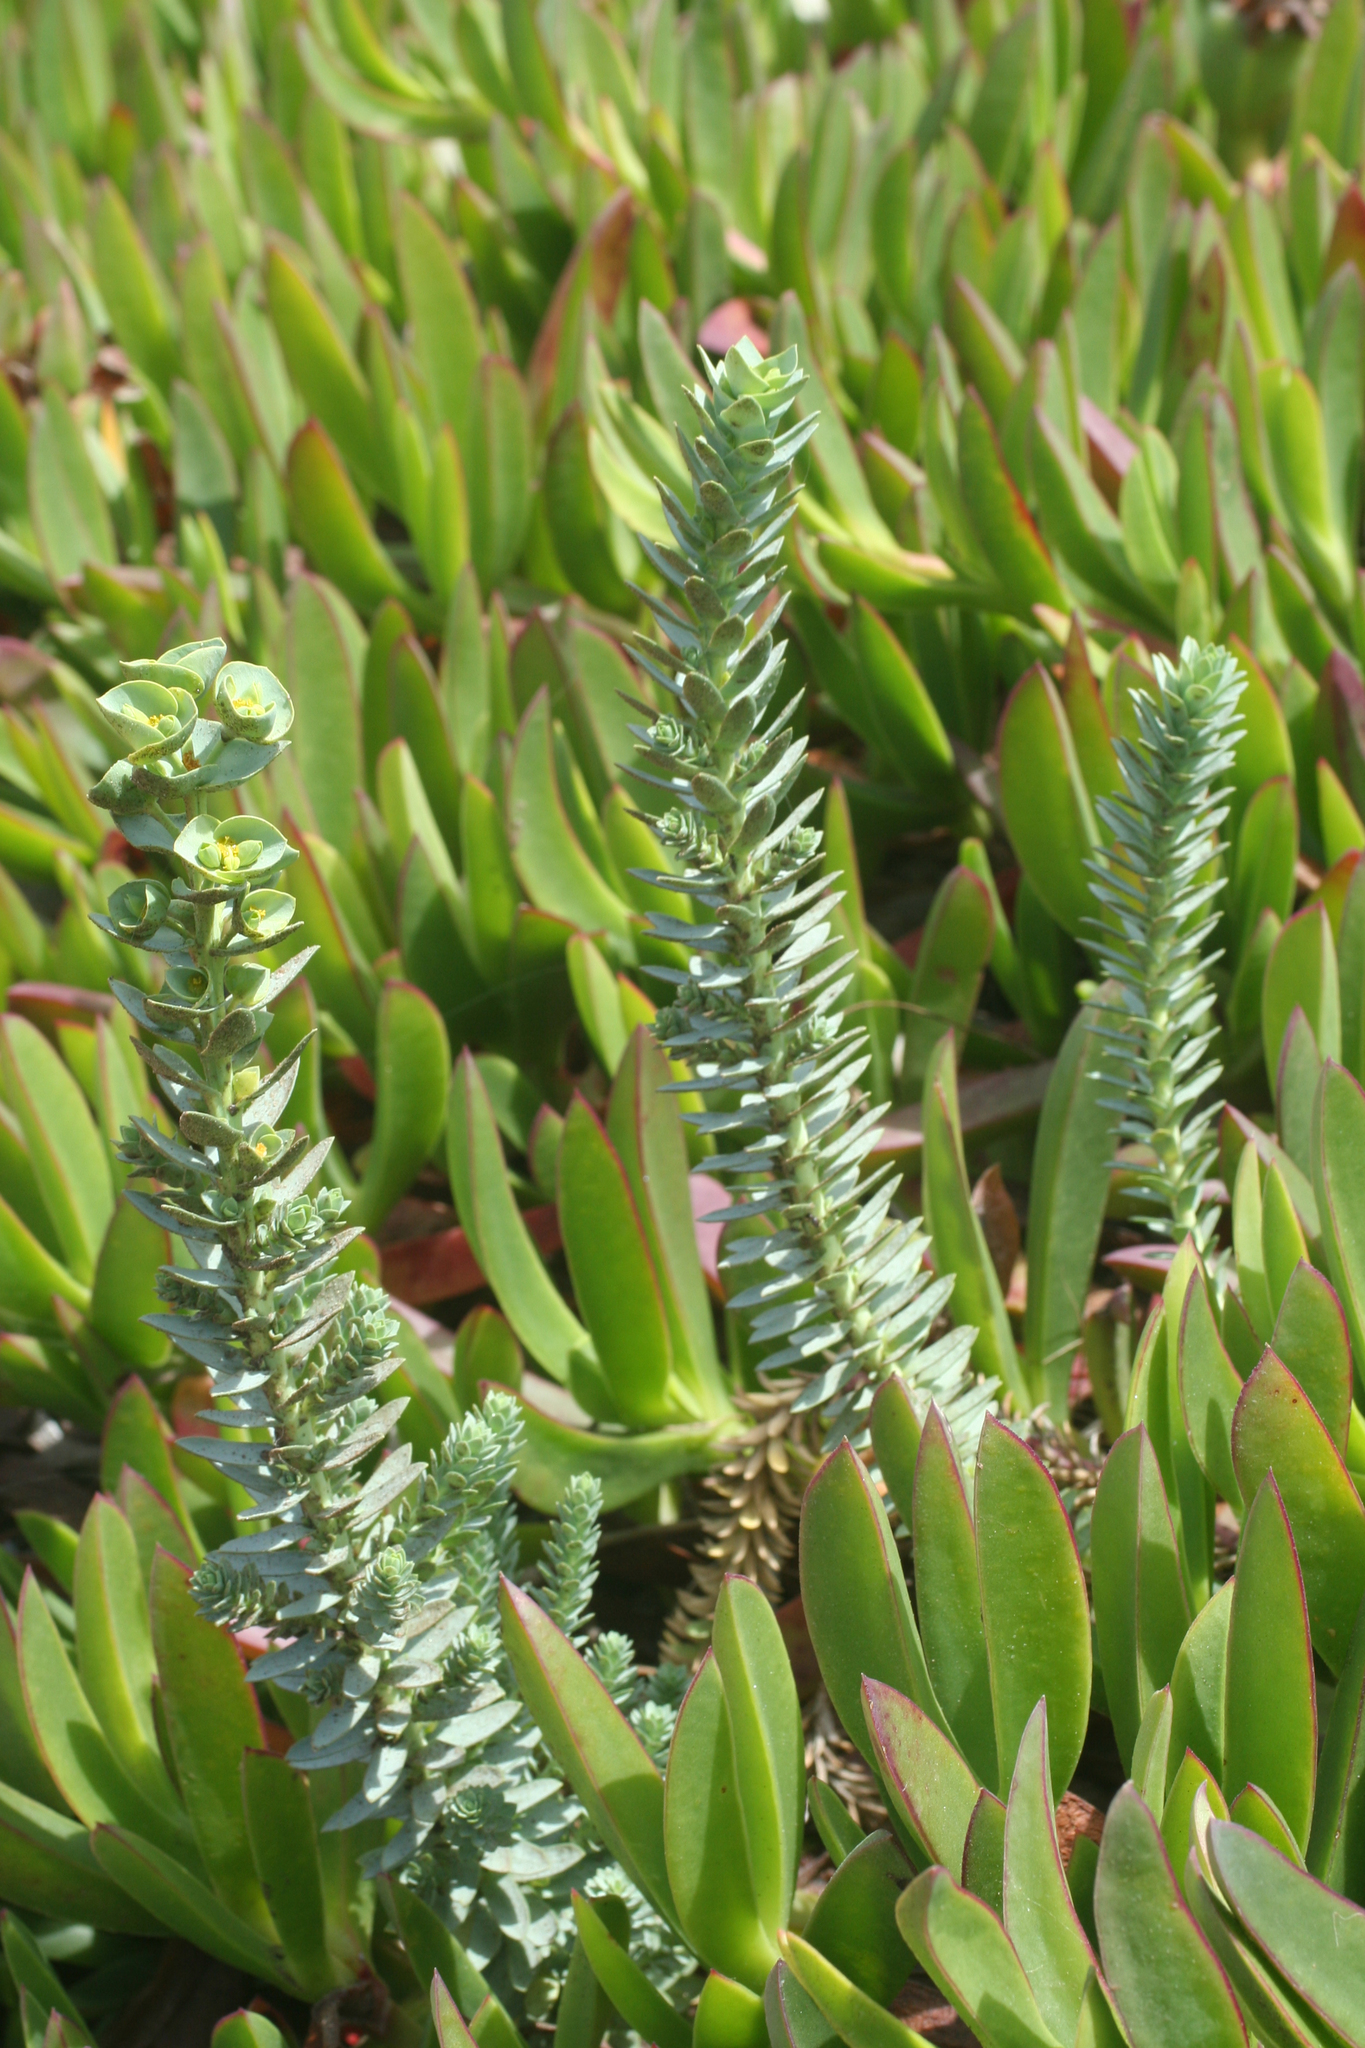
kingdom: Plantae
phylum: Tracheophyta
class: Magnoliopsida
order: Malpighiales
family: Euphorbiaceae
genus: Euphorbia
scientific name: Euphorbia paralias
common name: Sea spurge
